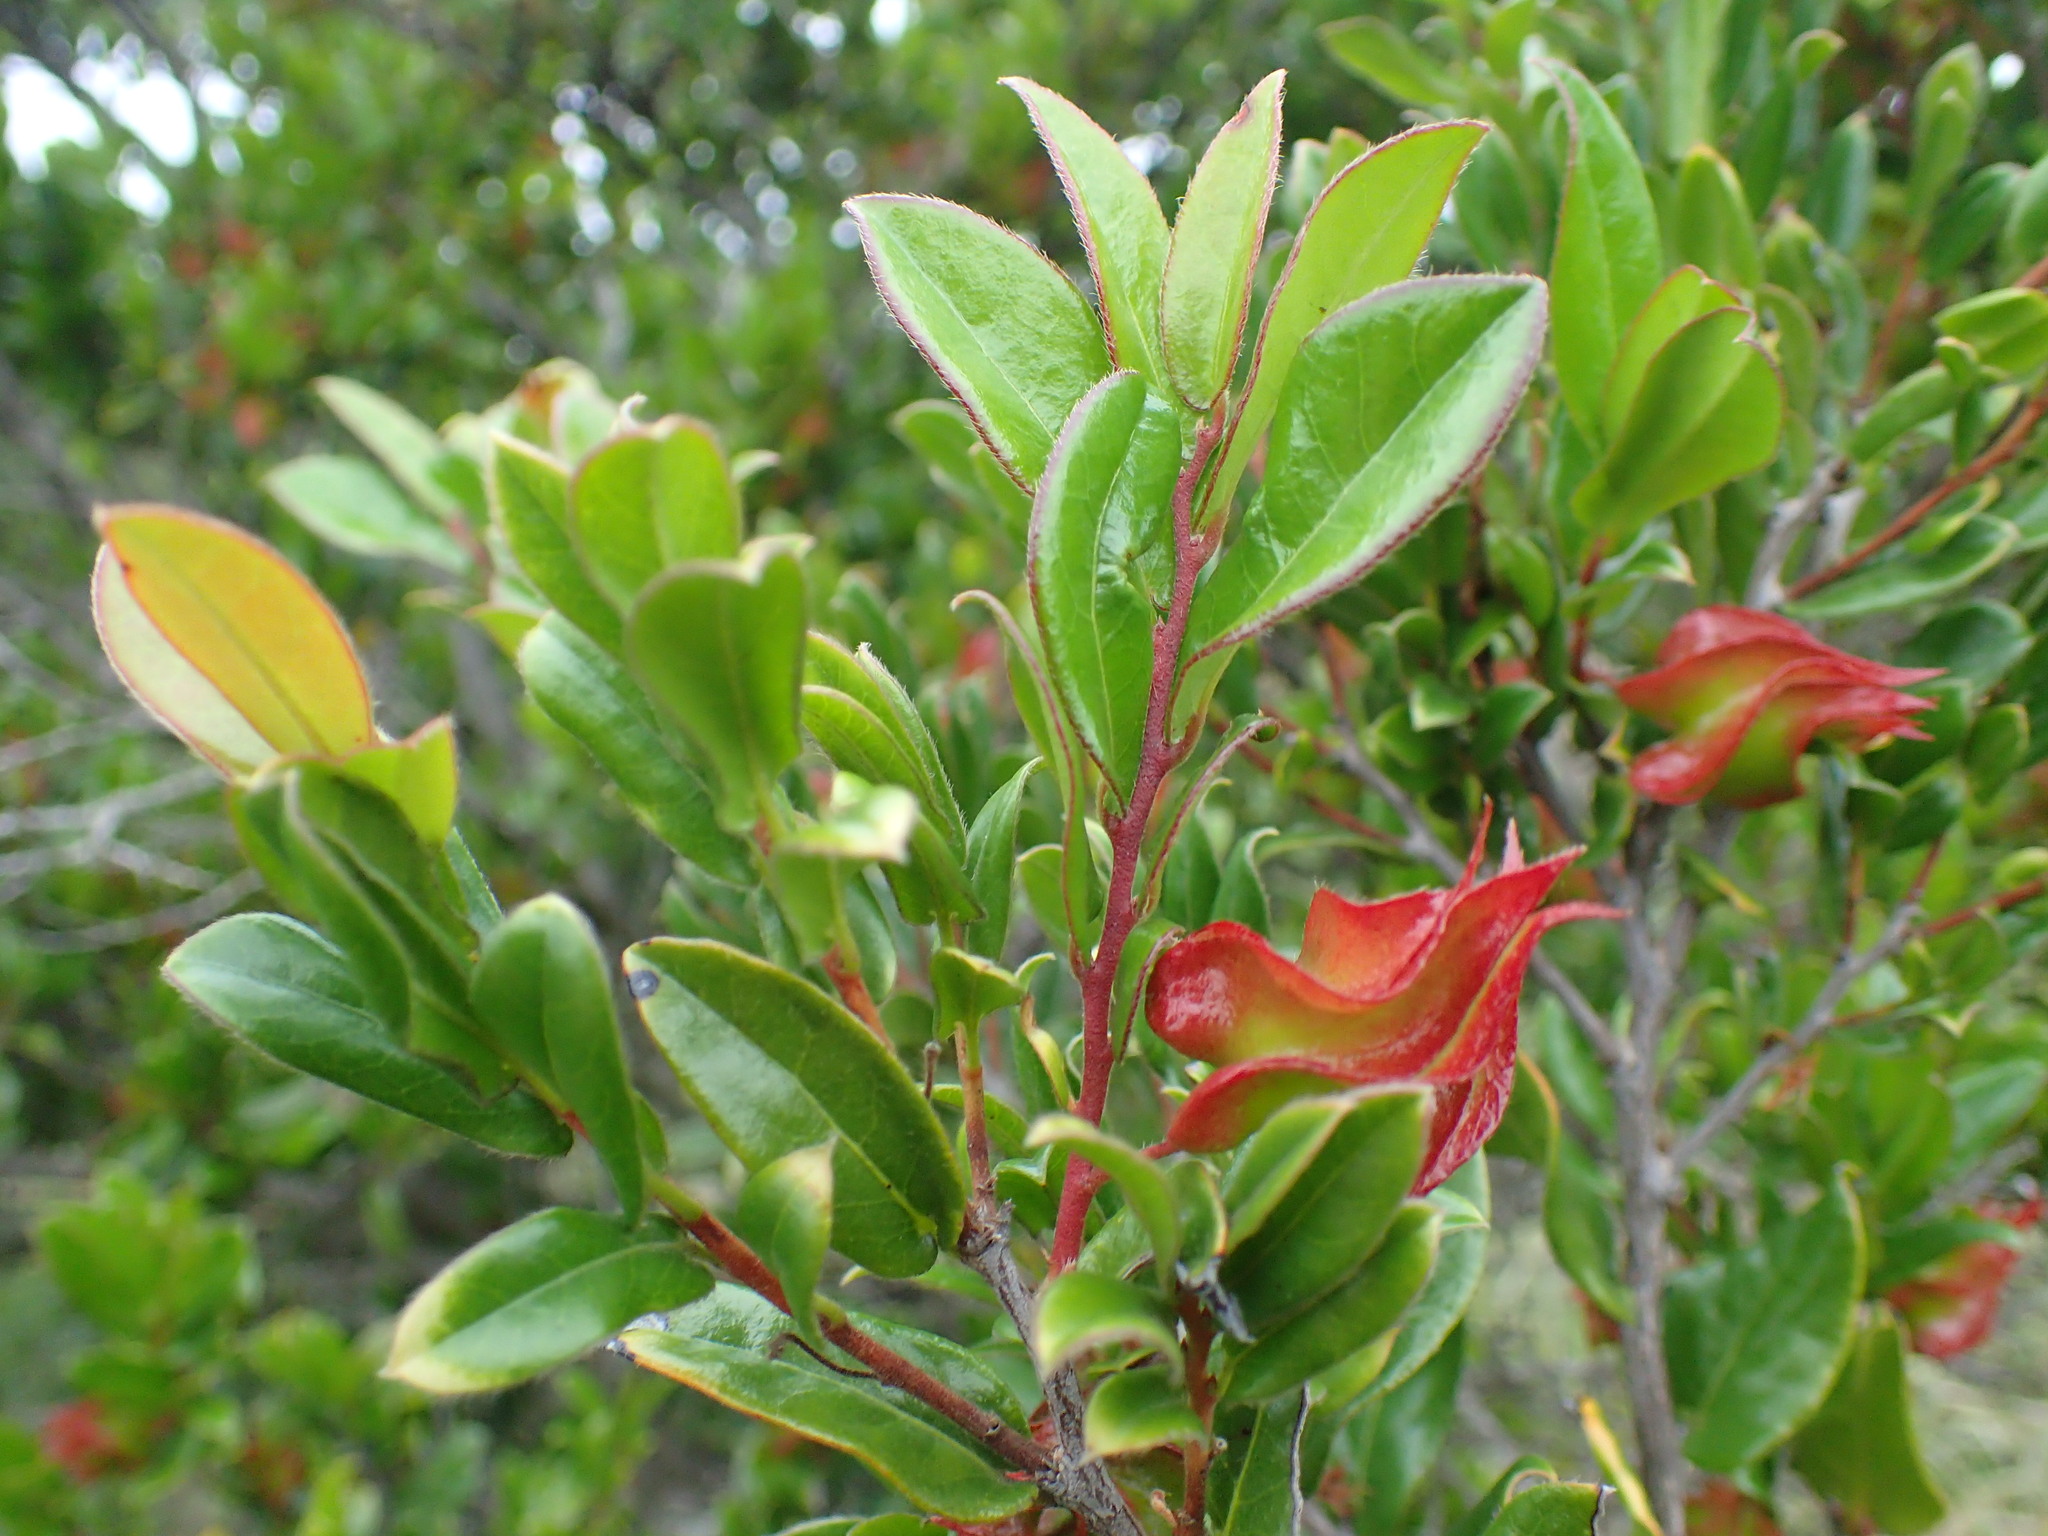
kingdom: Plantae
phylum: Tracheophyta
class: Magnoliopsida
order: Ericales
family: Ebenaceae
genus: Diospyros
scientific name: Diospyros scabrida
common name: Coastal bladder-nut
